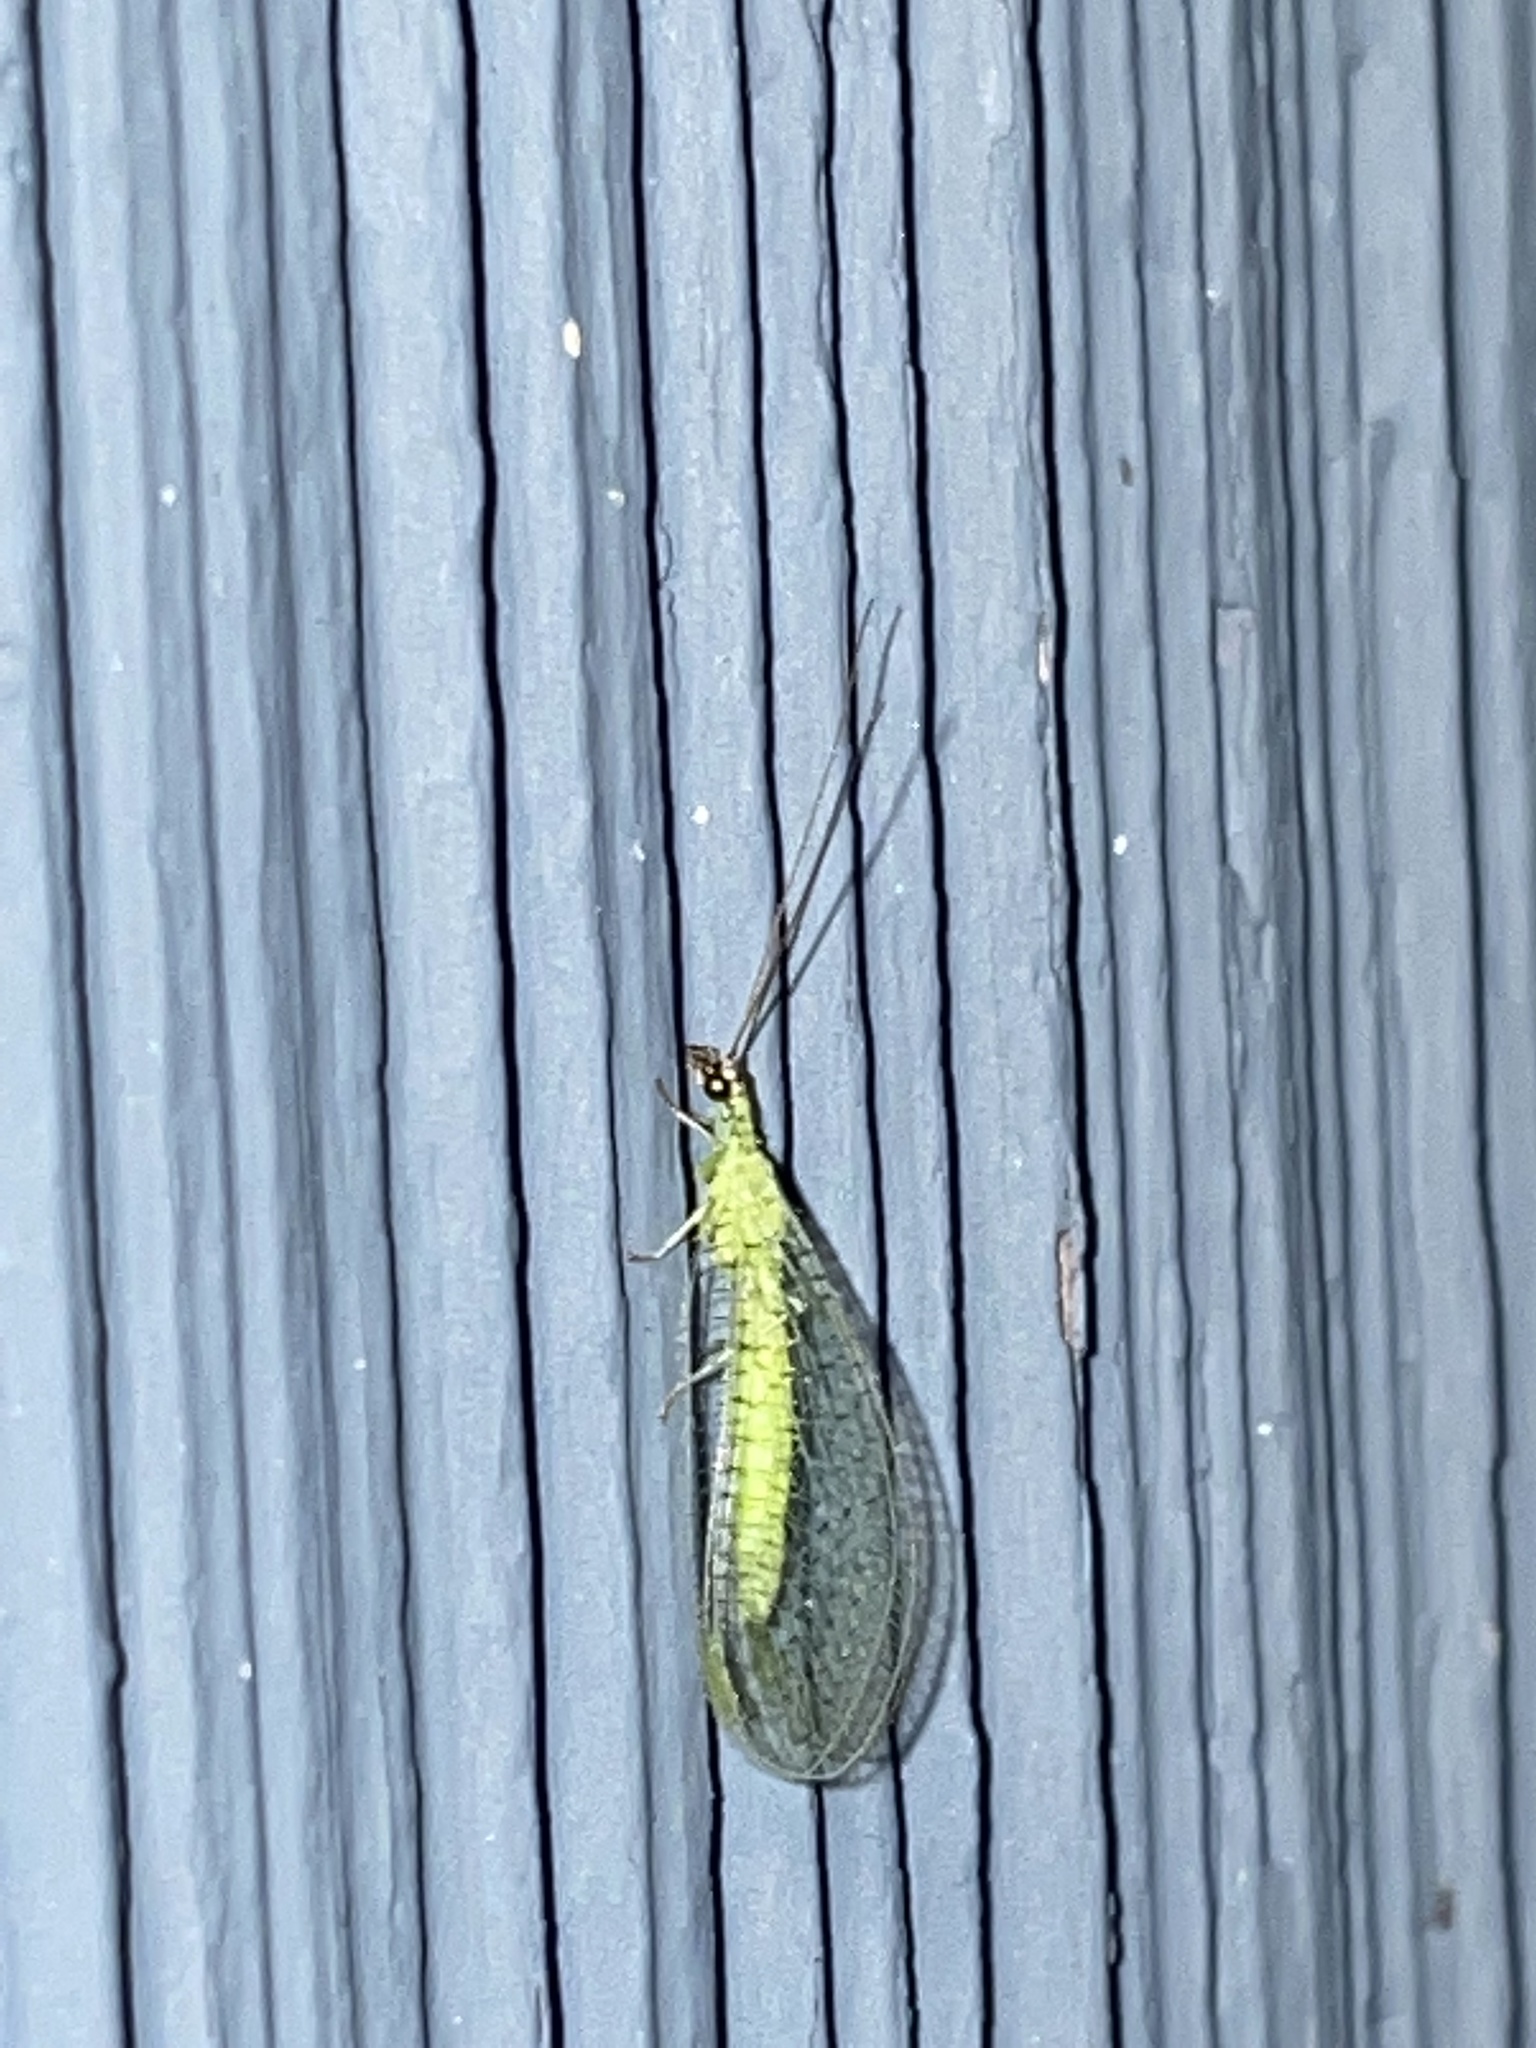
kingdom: Animalia
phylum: Arthropoda
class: Insecta
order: Neuroptera
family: Chrysopidae
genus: Chrysopa
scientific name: Chrysopa oculata
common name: Golden-eyed lacewing
